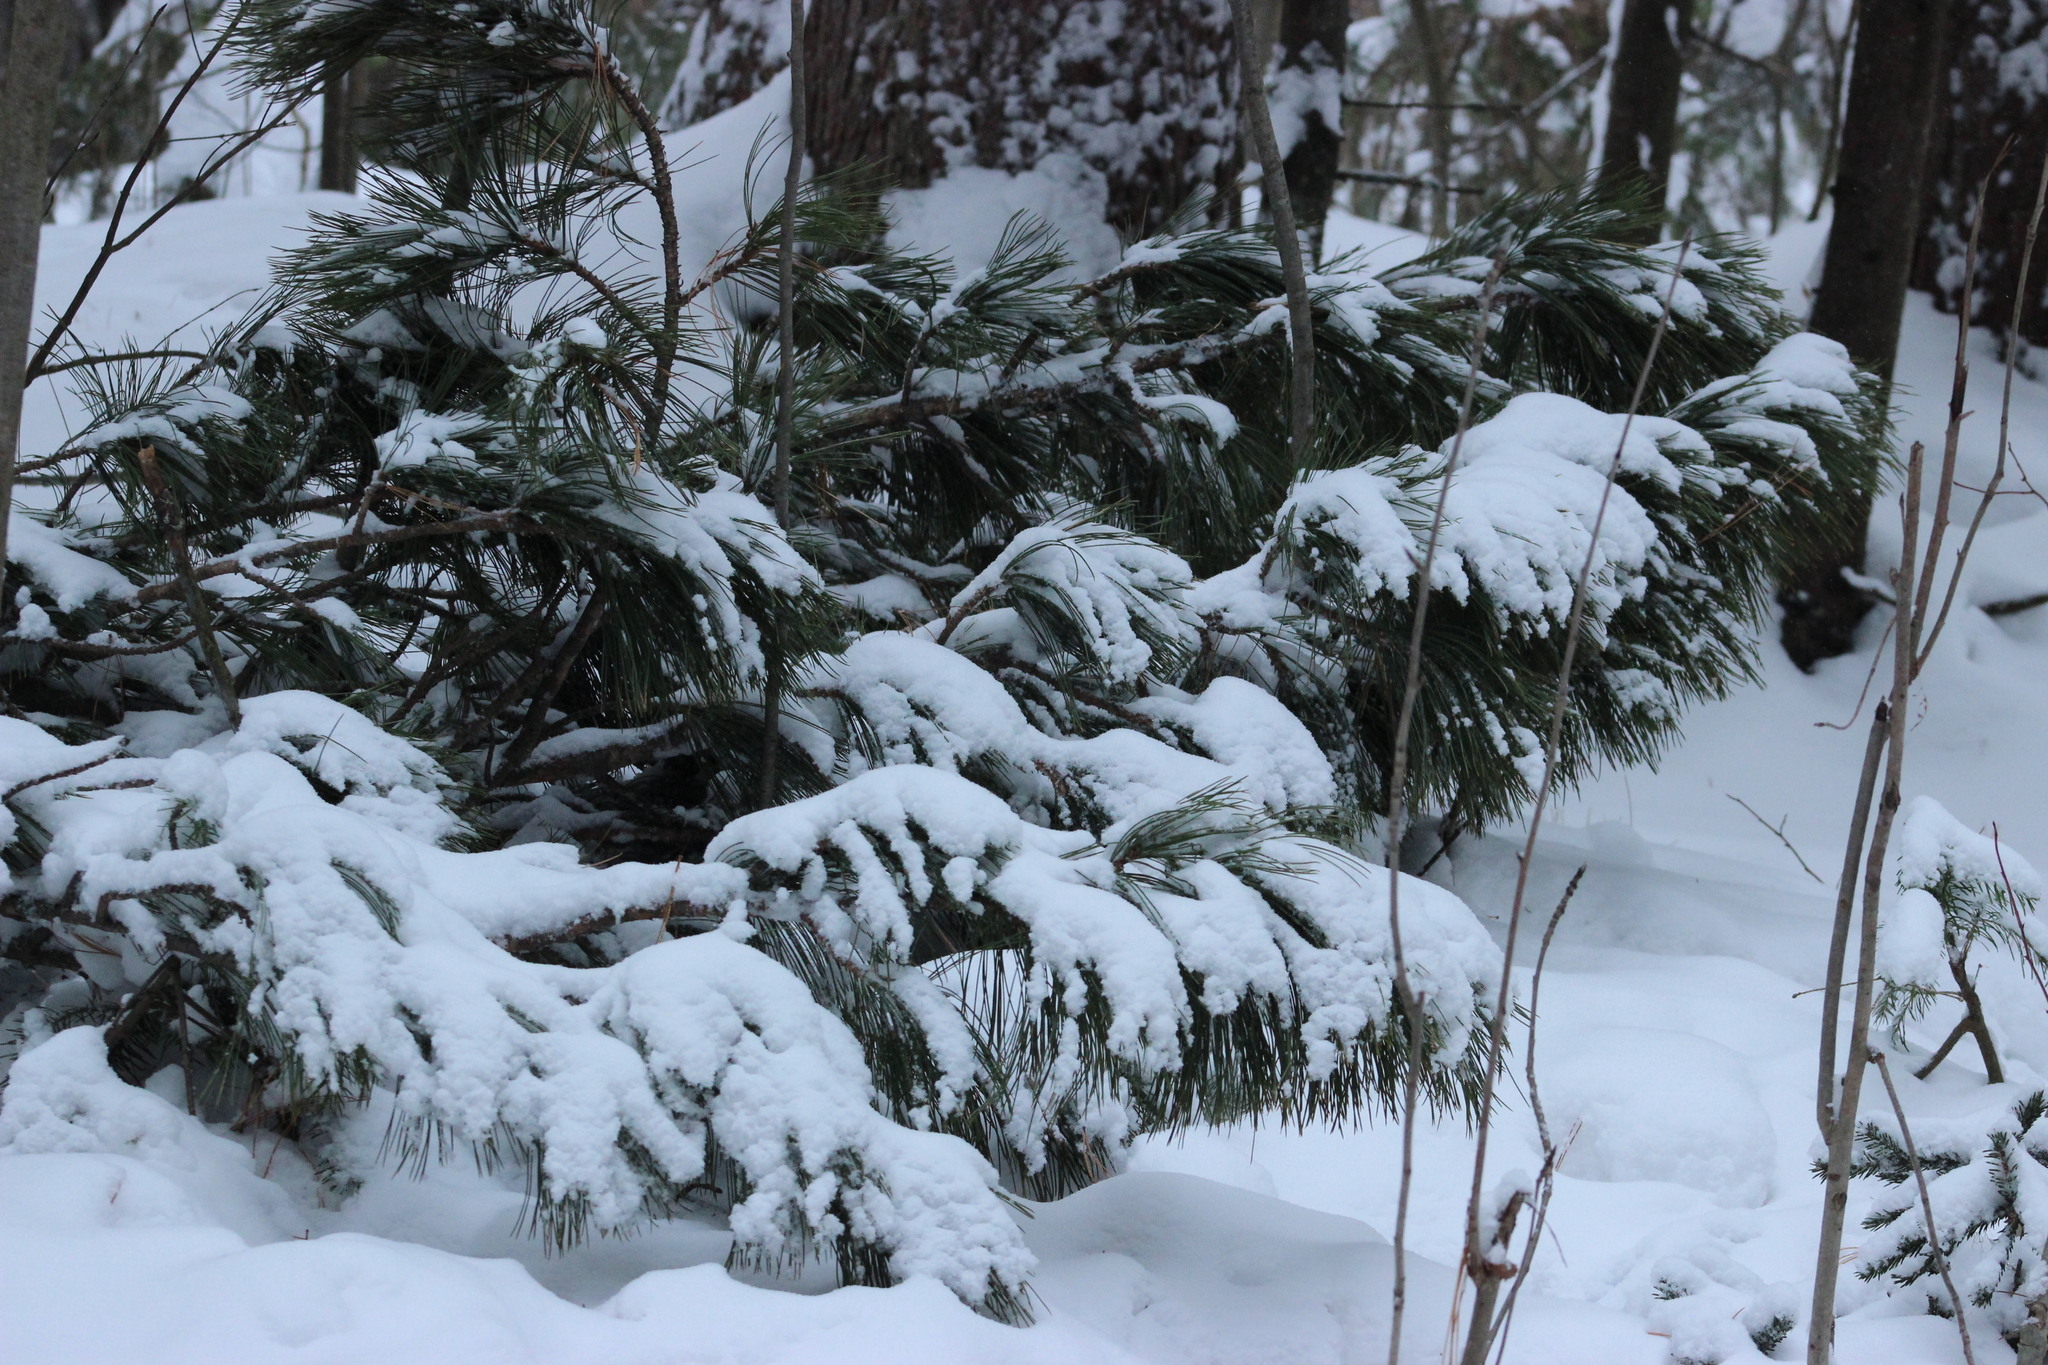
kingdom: Plantae
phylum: Tracheophyta
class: Pinopsida
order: Pinales
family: Pinaceae
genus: Pinus
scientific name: Pinus sibirica
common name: Siberian pine
